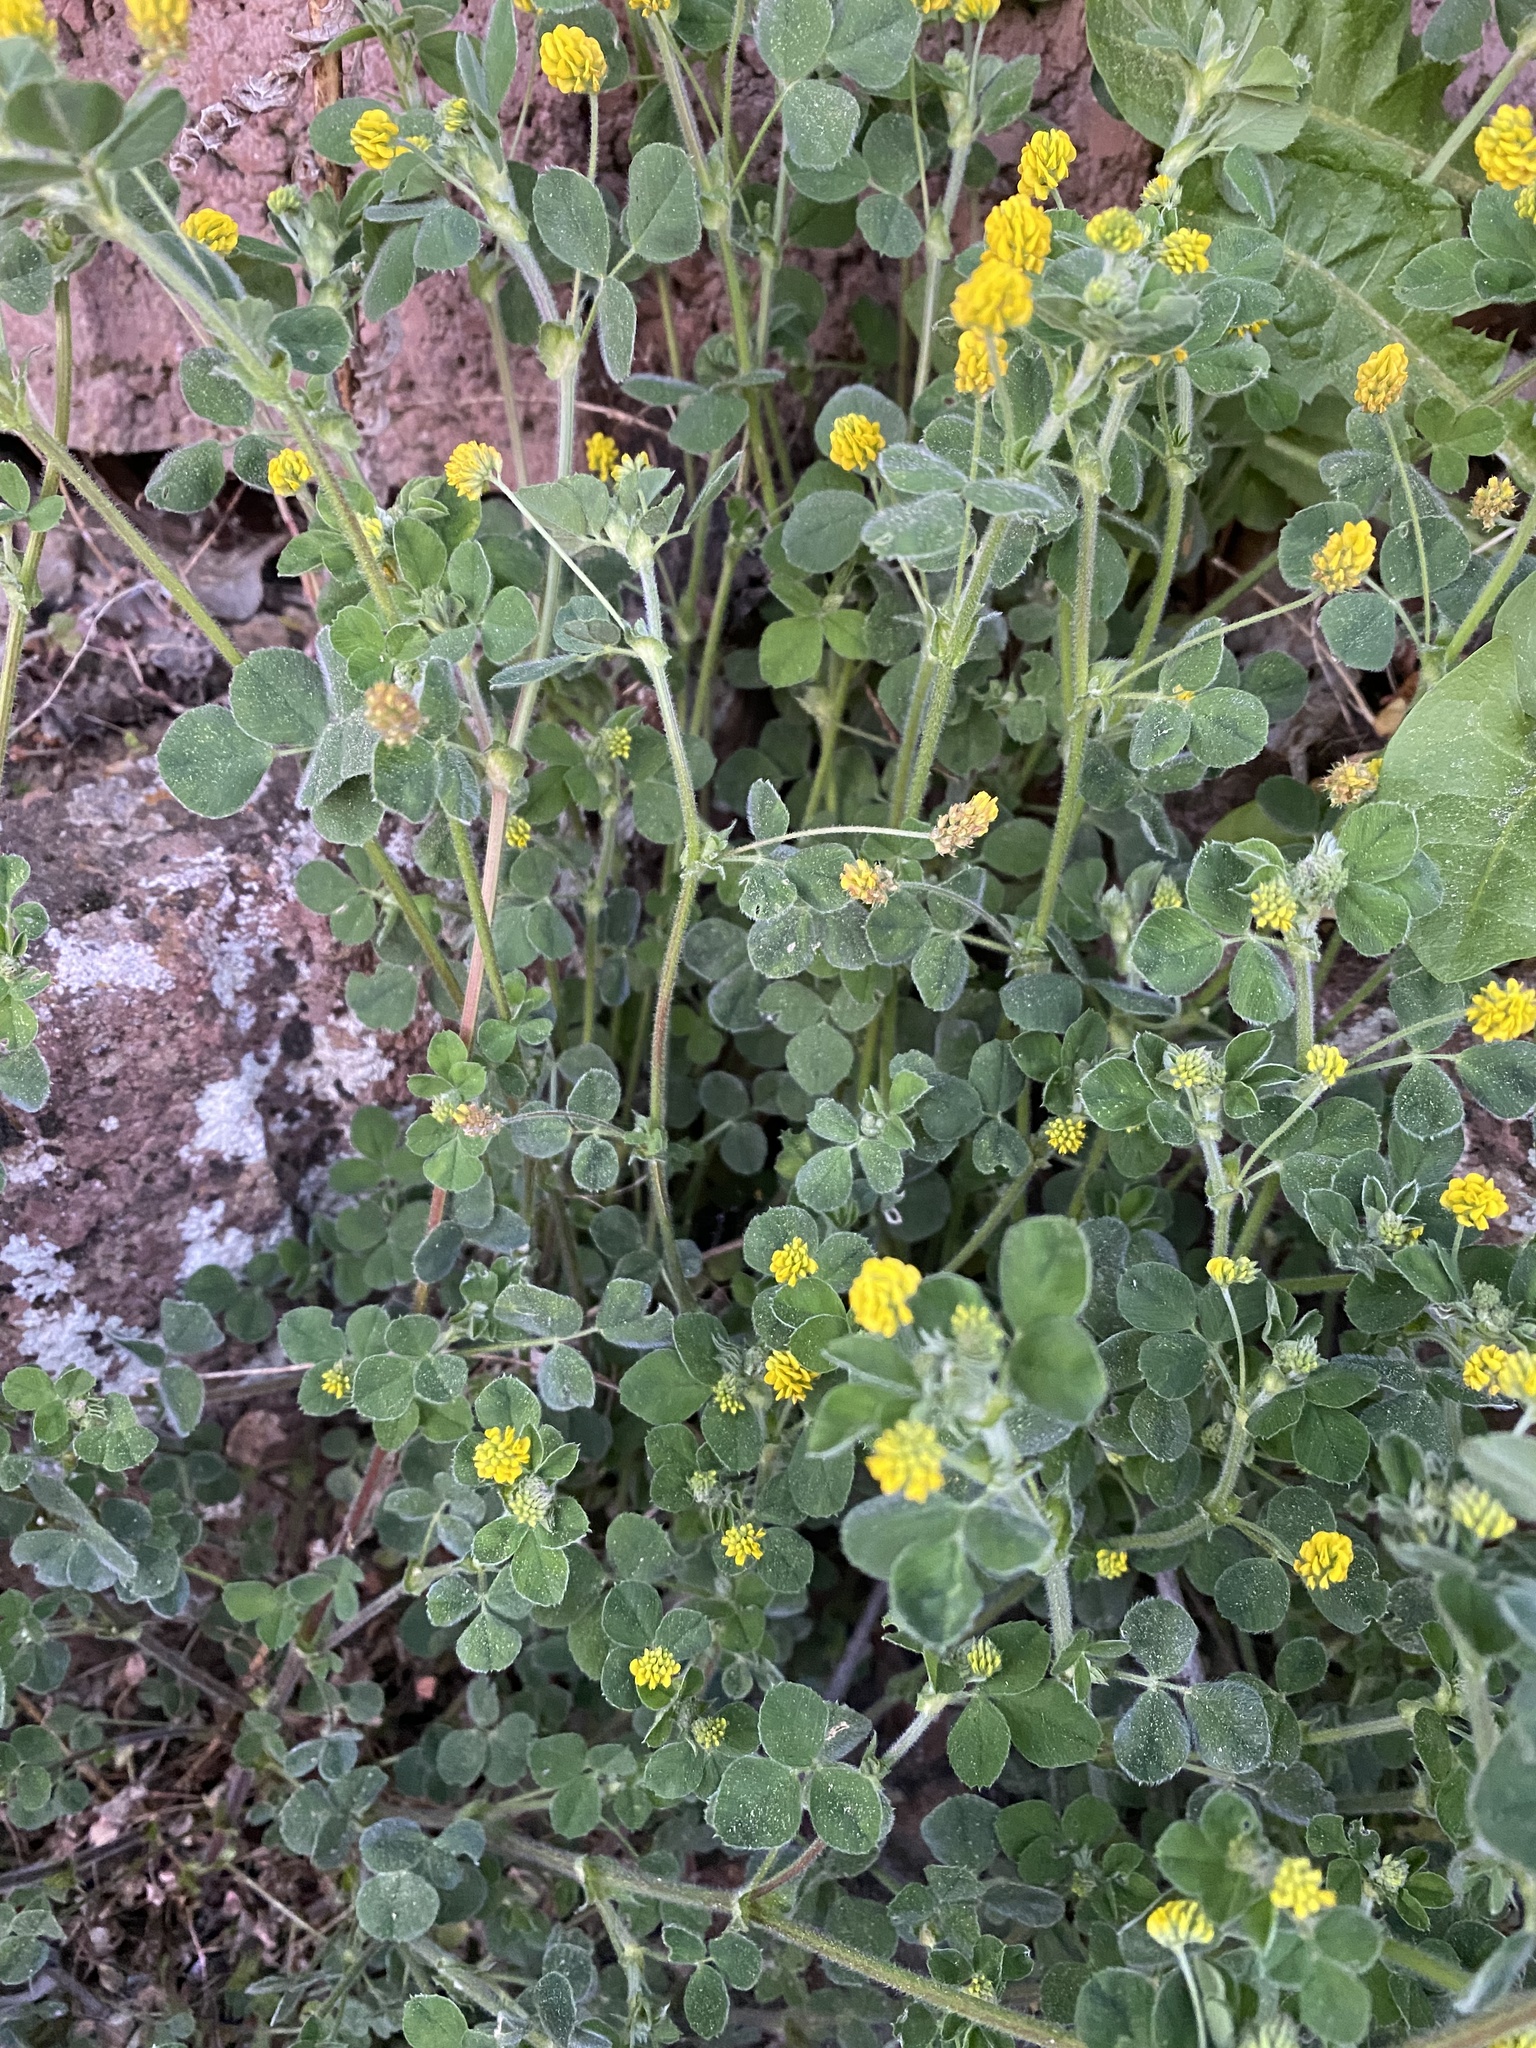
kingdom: Plantae
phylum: Tracheophyta
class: Magnoliopsida
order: Fabales
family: Fabaceae
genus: Medicago
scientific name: Medicago lupulina
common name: Black medick
